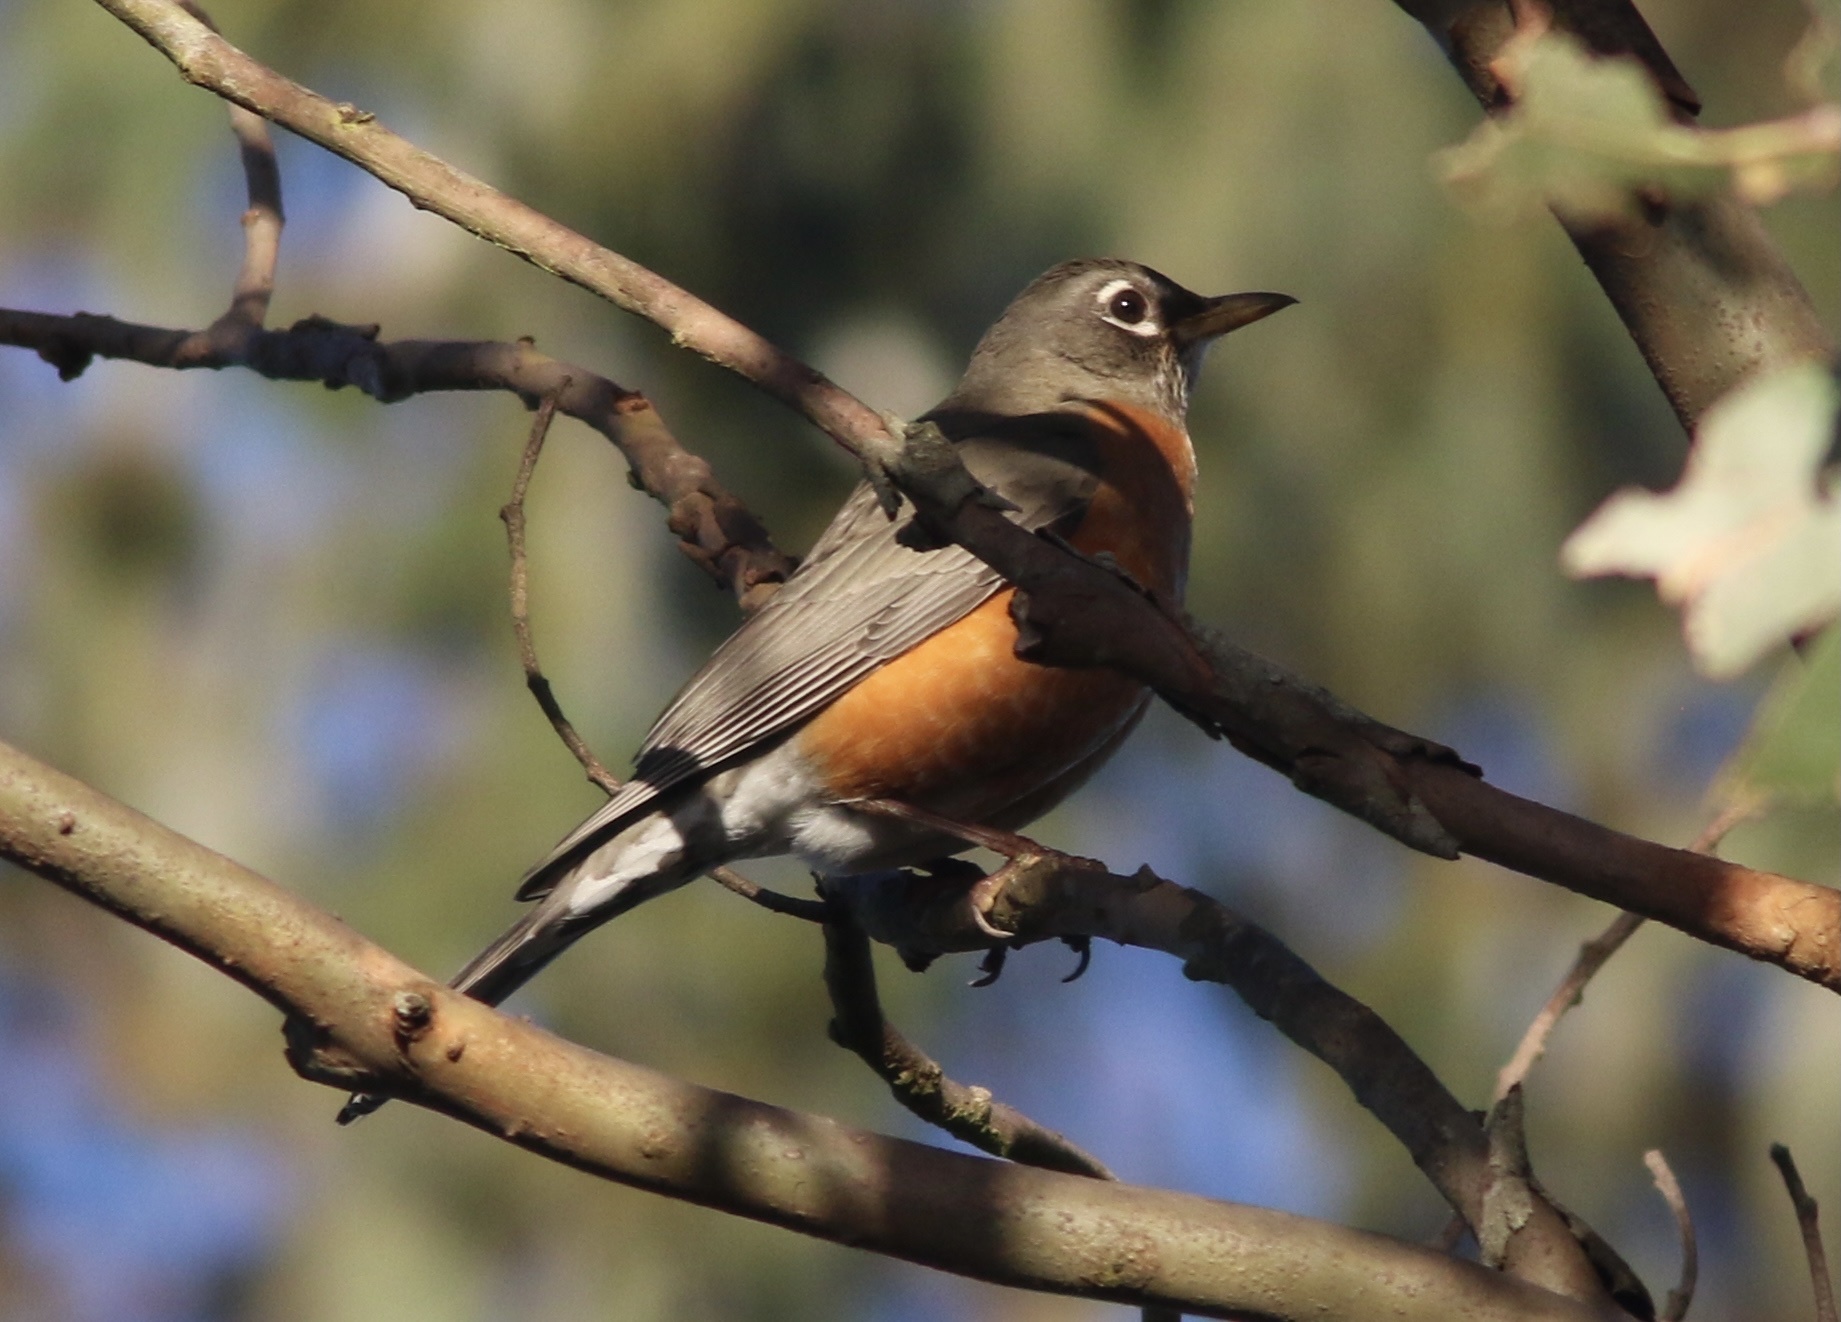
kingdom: Animalia
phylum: Chordata
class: Aves
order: Passeriformes
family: Turdidae
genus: Turdus
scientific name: Turdus migratorius
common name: American robin
